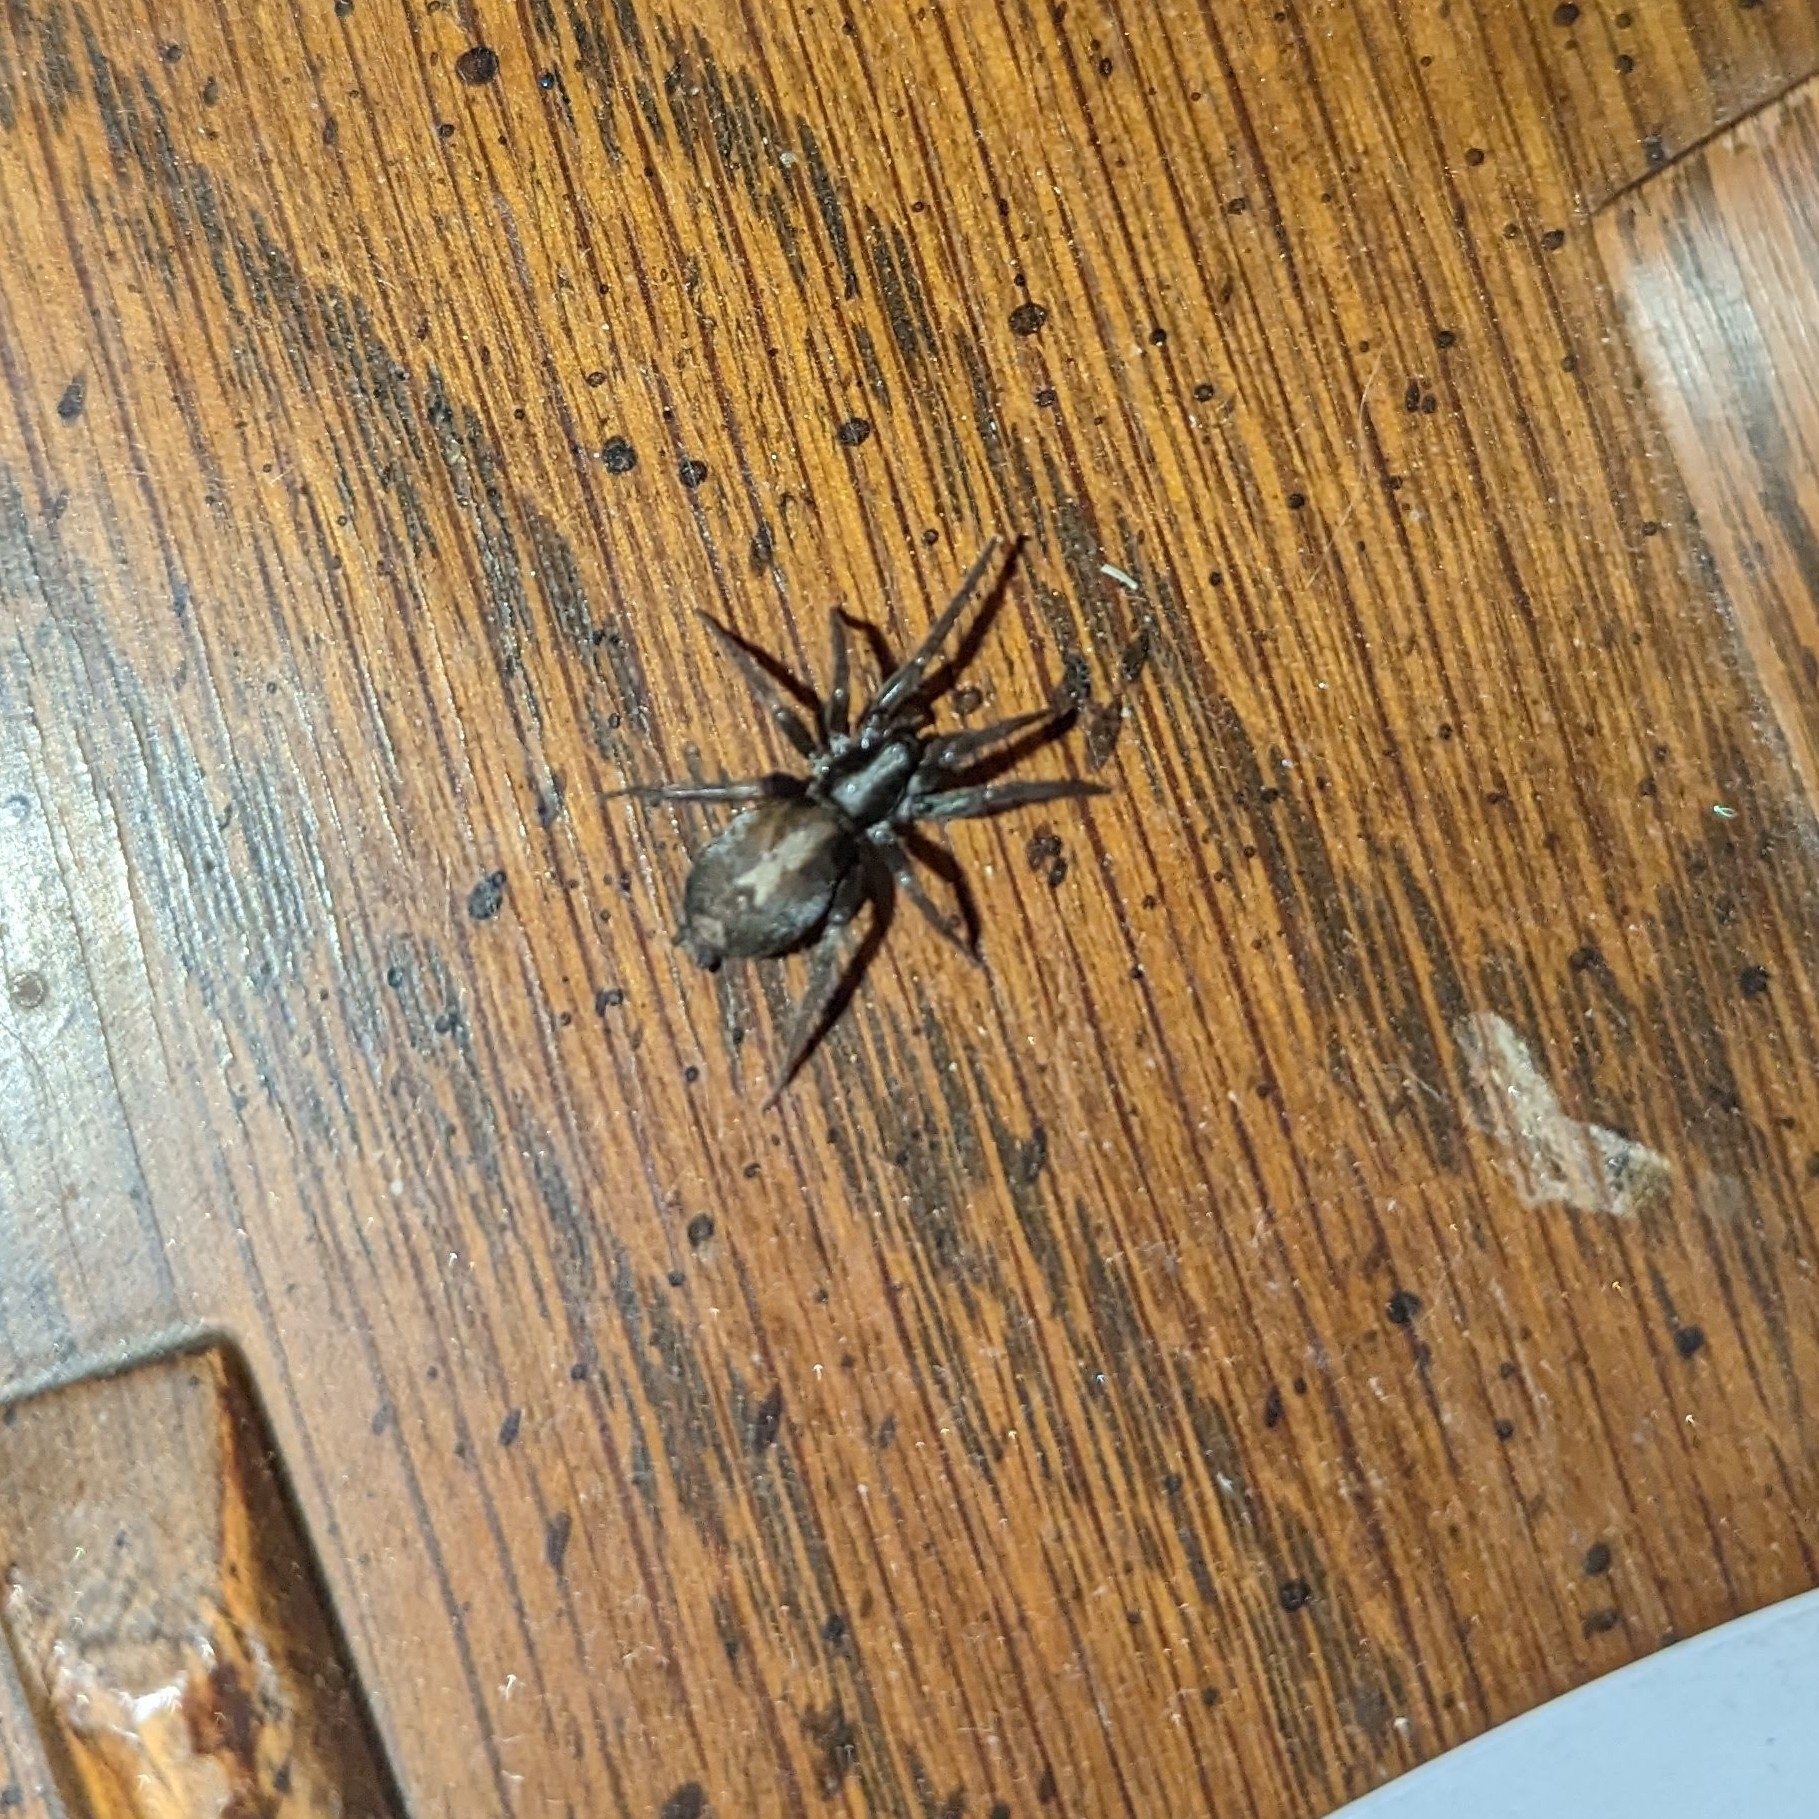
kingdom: Animalia
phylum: Arthropoda
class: Arachnida
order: Araneae
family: Gnaphosidae
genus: Herpyllus
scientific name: Herpyllus ecclesiasticus
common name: Eastern parson spider
